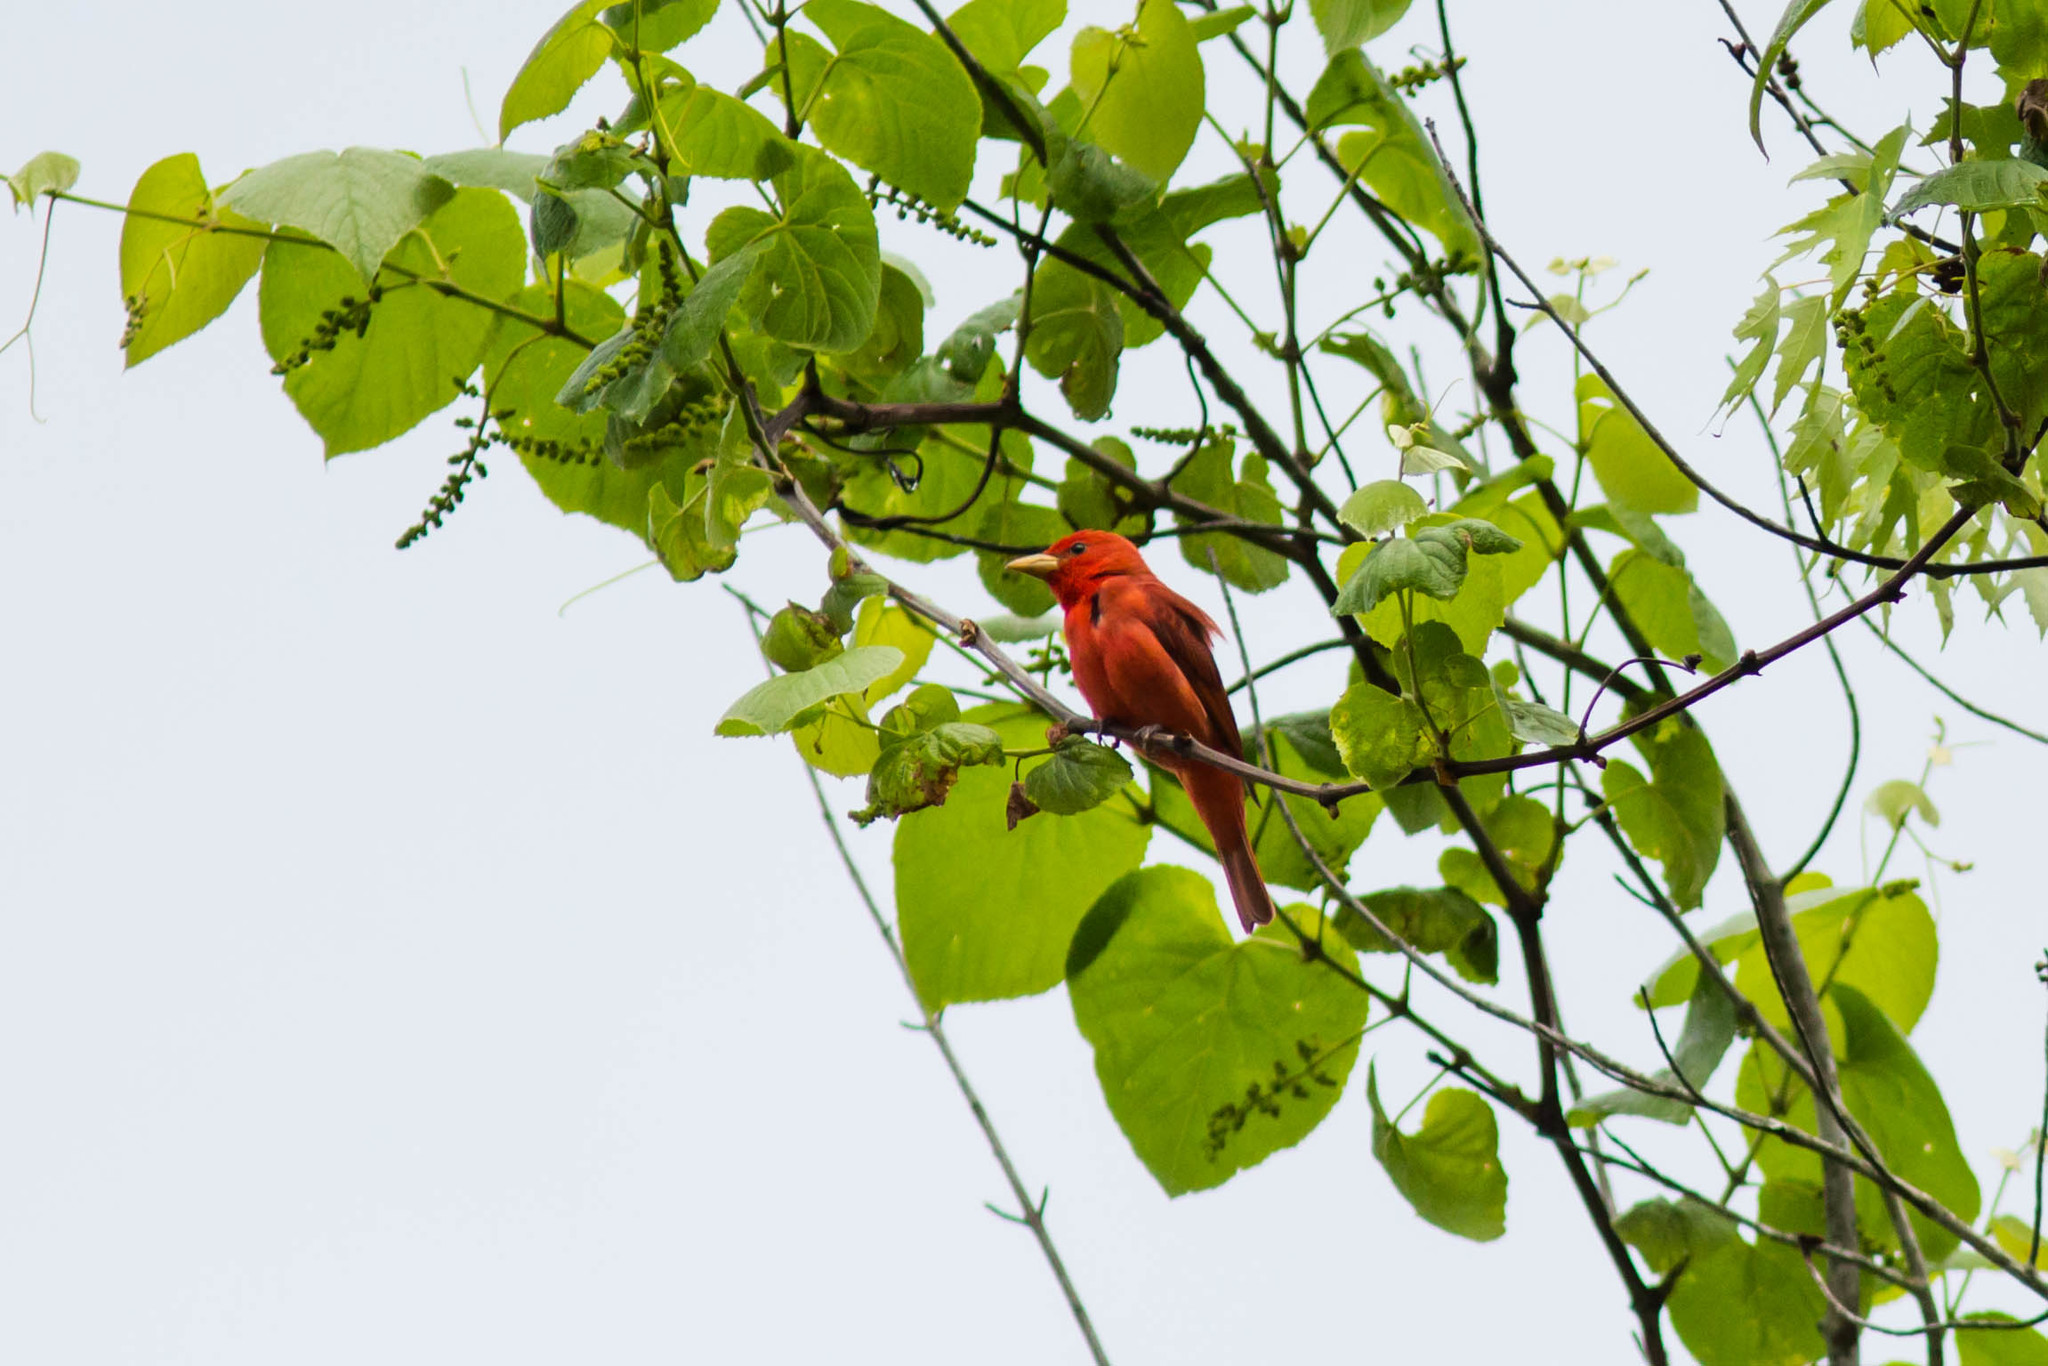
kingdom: Animalia
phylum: Chordata
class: Aves
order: Passeriformes
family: Cardinalidae
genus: Piranga
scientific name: Piranga rubra
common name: Summer tanager
